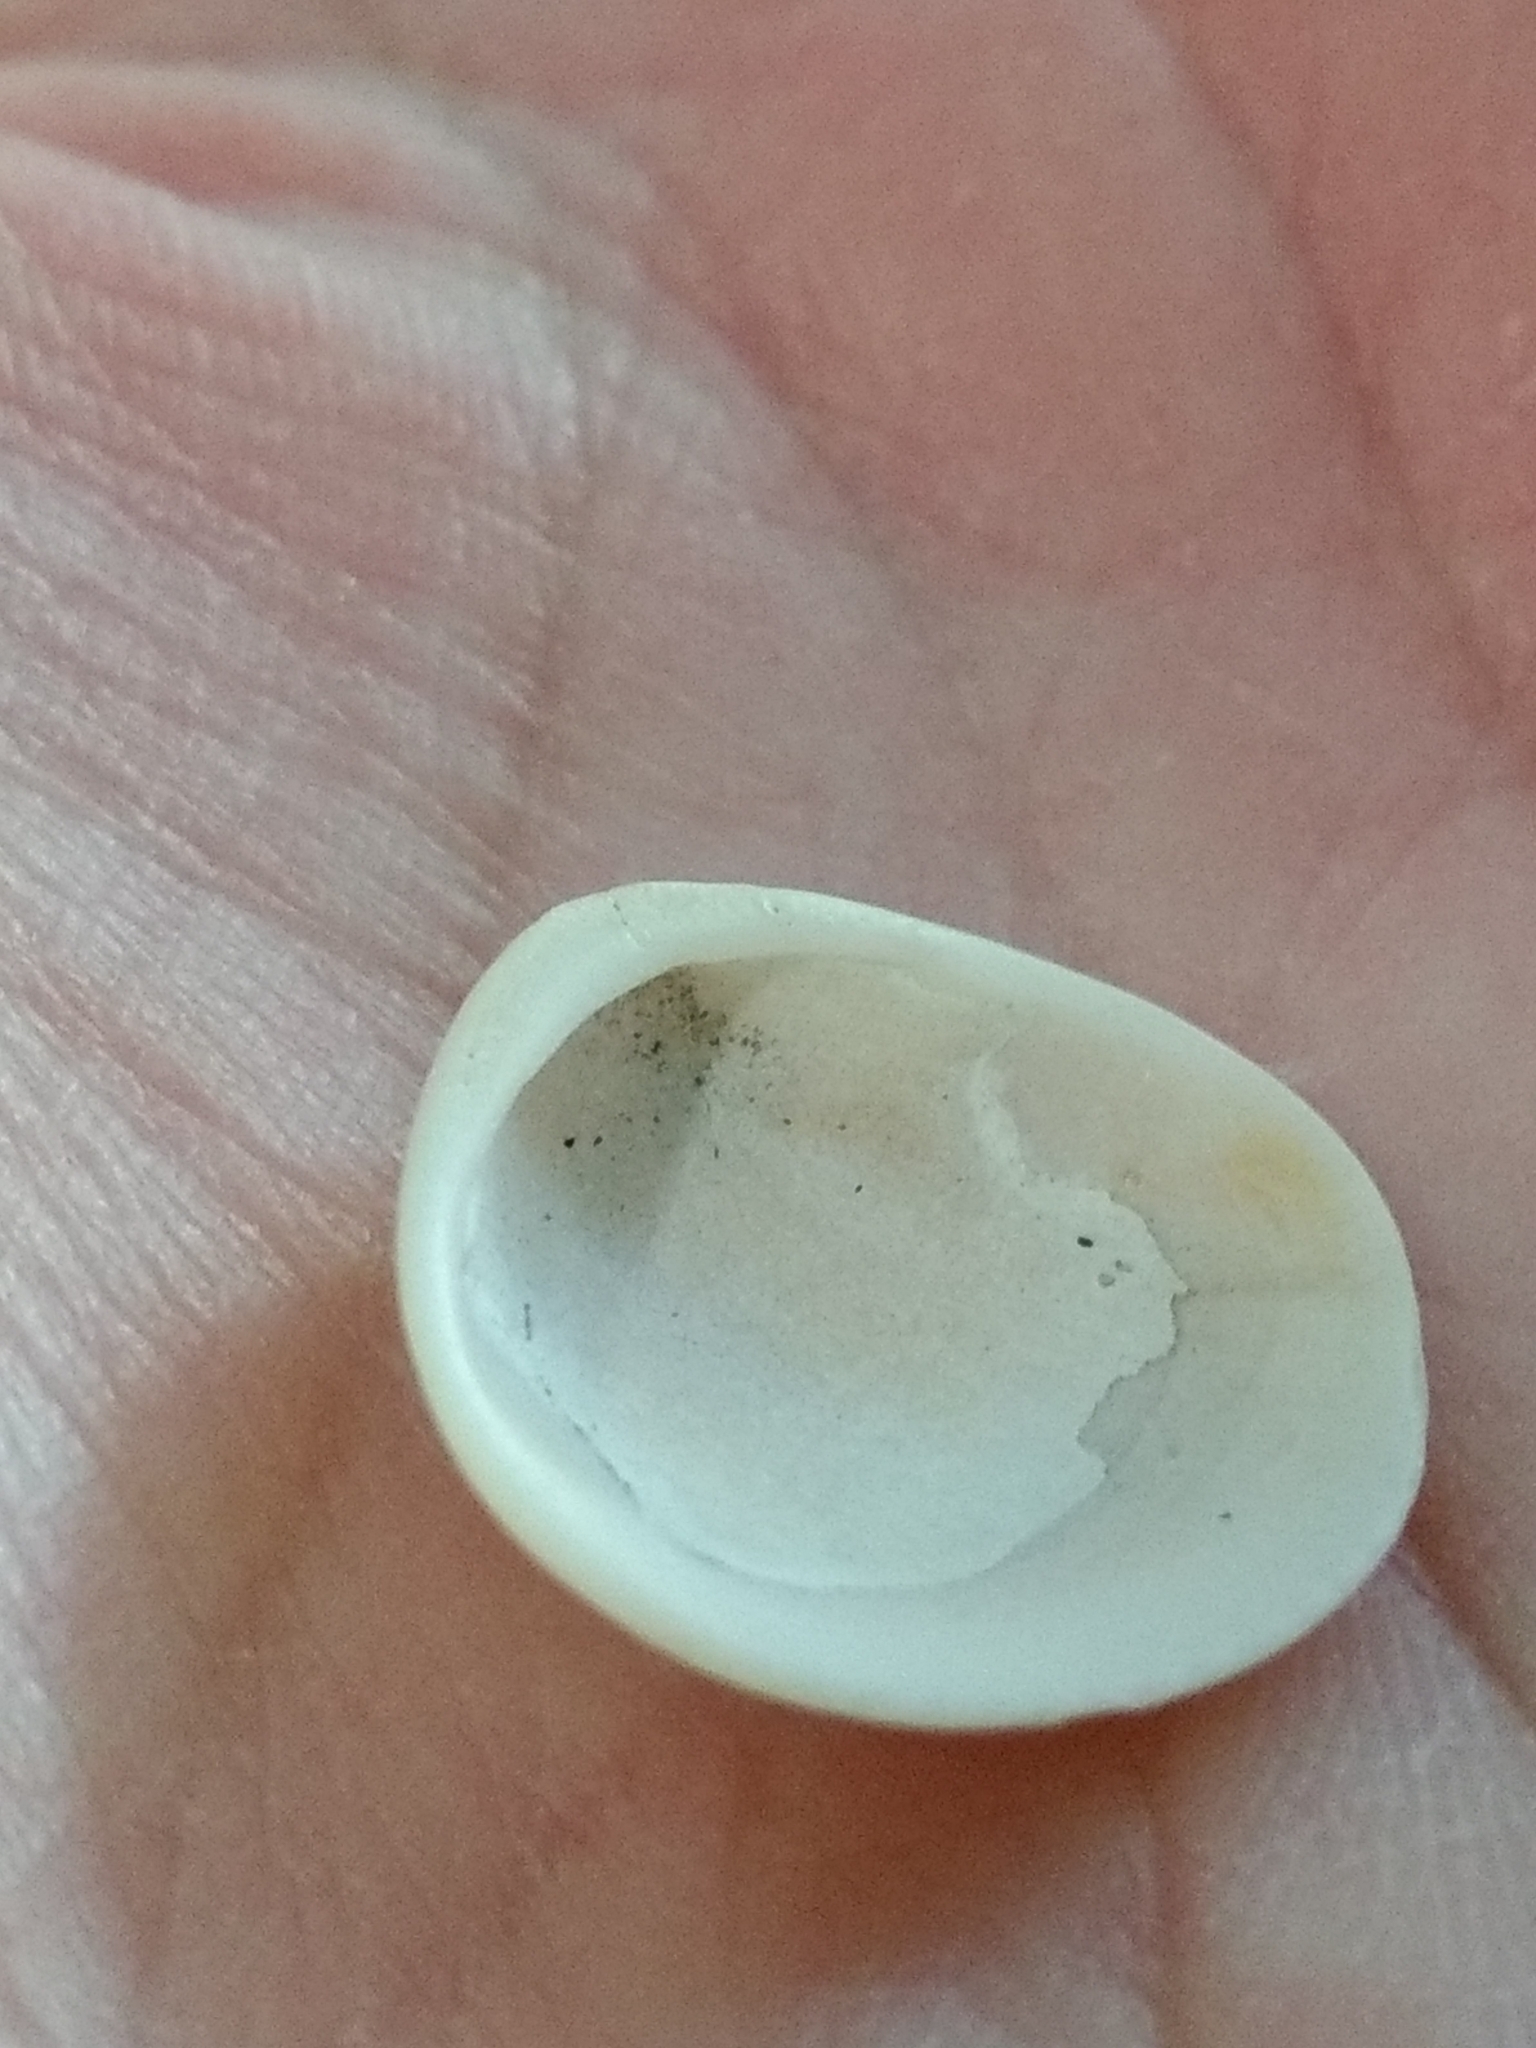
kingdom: Animalia
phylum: Mollusca
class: Bivalvia
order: Arcida
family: Glycymerididae
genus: Glycymeris
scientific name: Glycymeris septentrionalis
